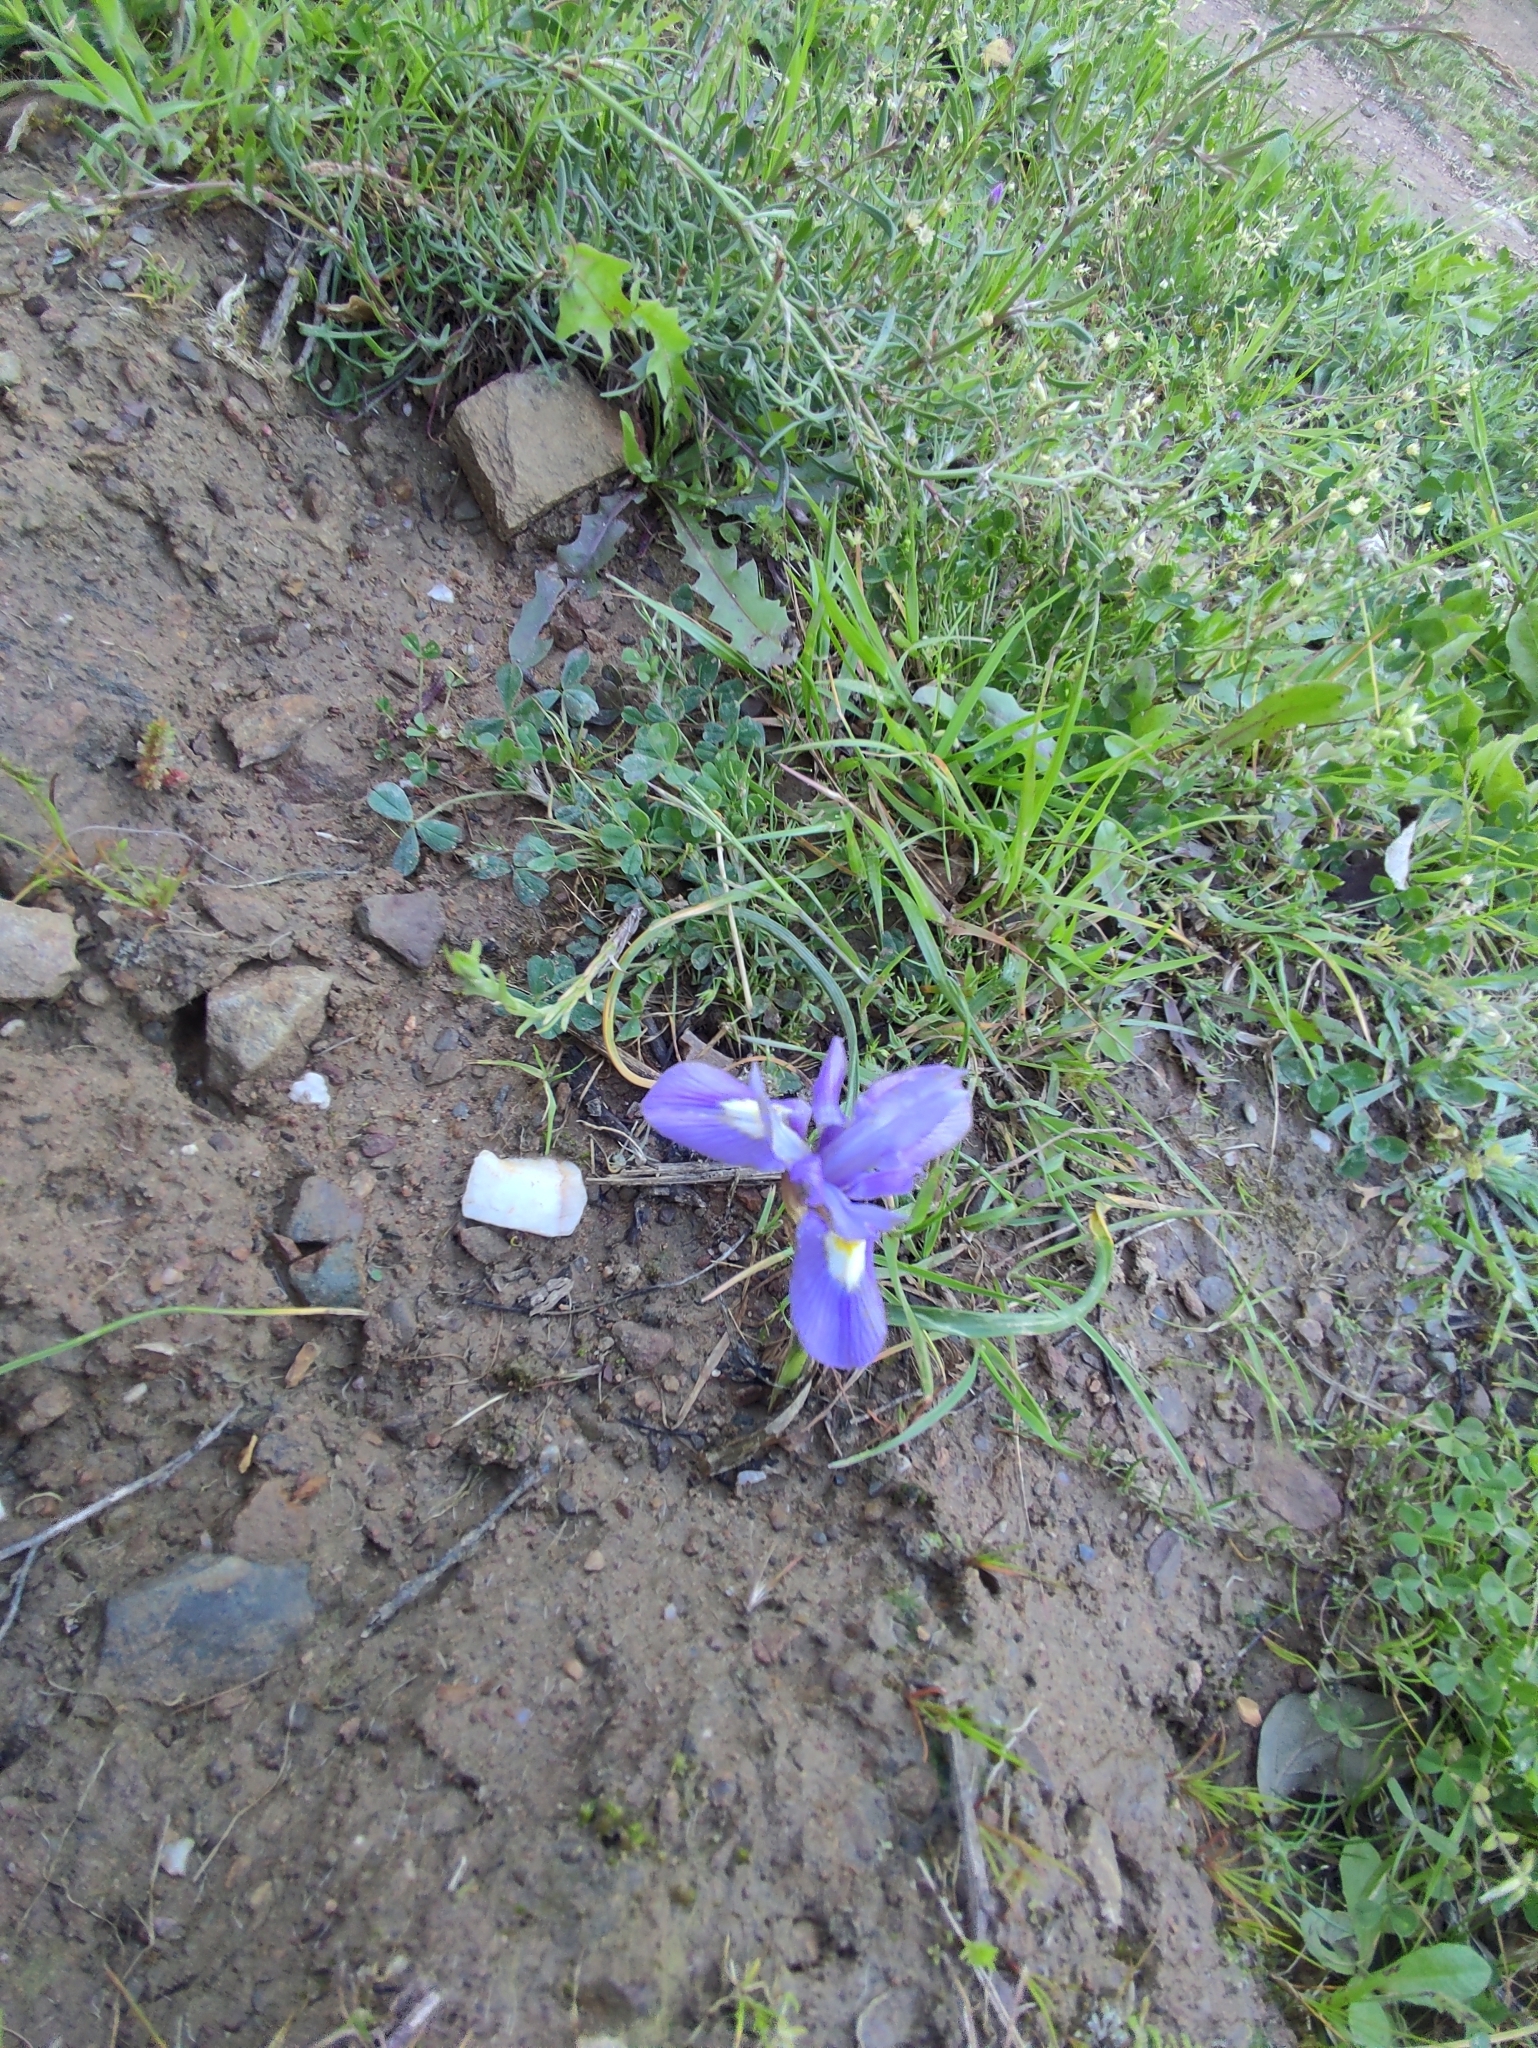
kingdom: Plantae
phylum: Tracheophyta
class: Liliopsida
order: Asparagales
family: Iridaceae
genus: Moraea
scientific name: Moraea sisyrinchium
